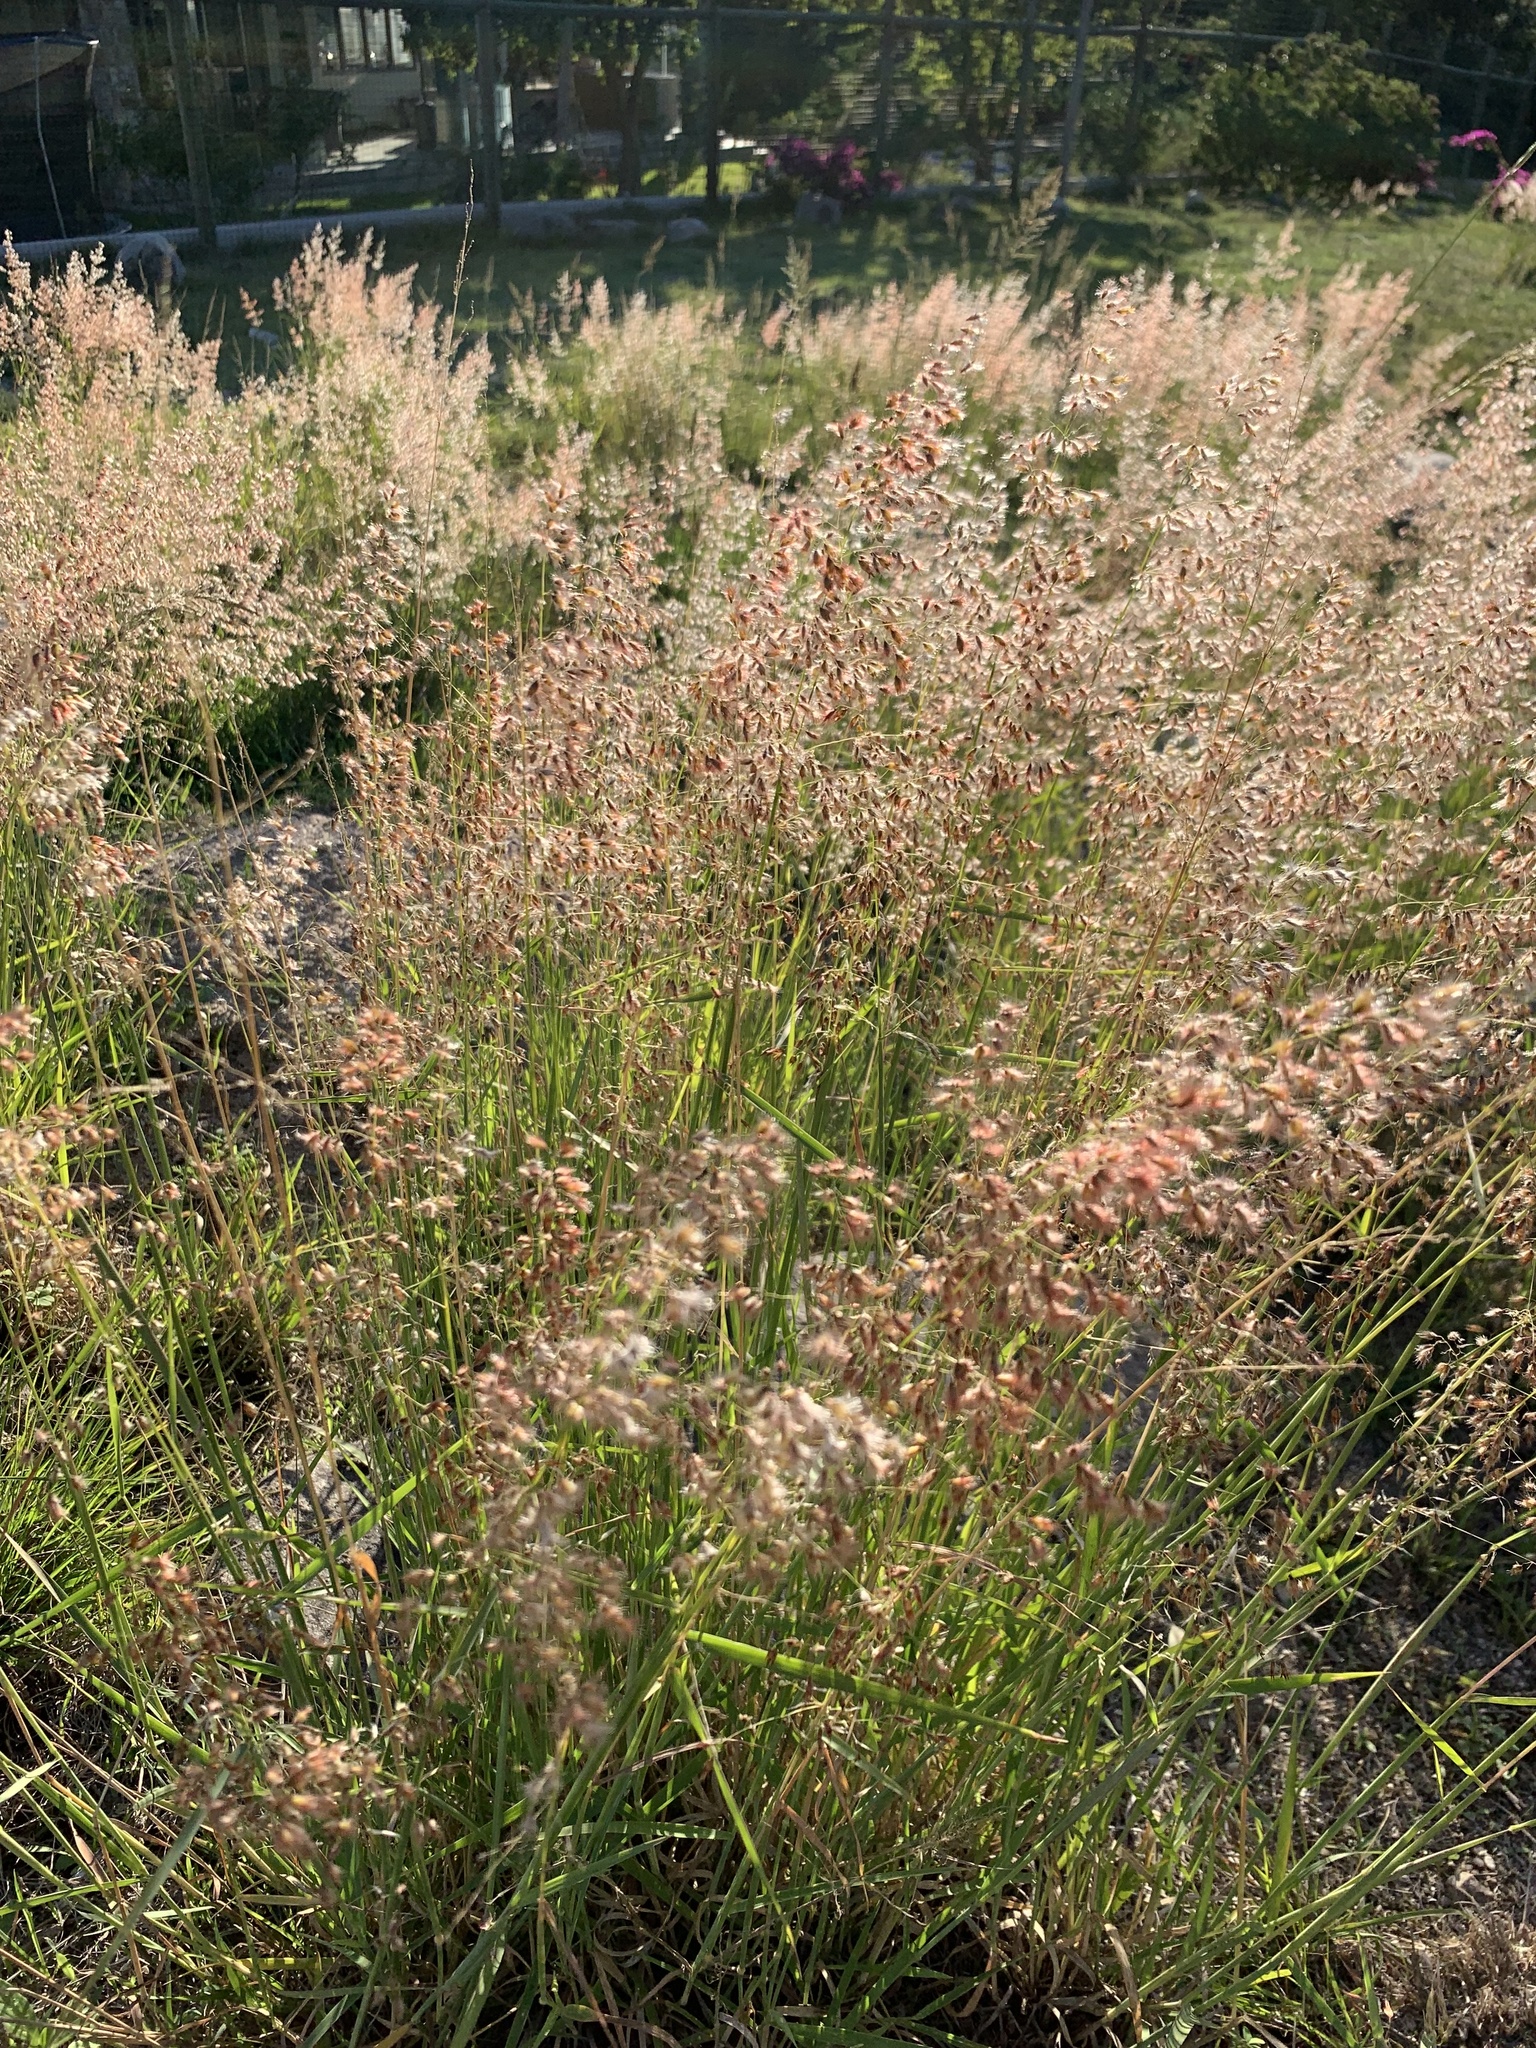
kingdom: Plantae
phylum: Tracheophyta
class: Liliopsida
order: Poales
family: Poaceae
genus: Melinis
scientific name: Melinis repens
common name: Rose natal grass
